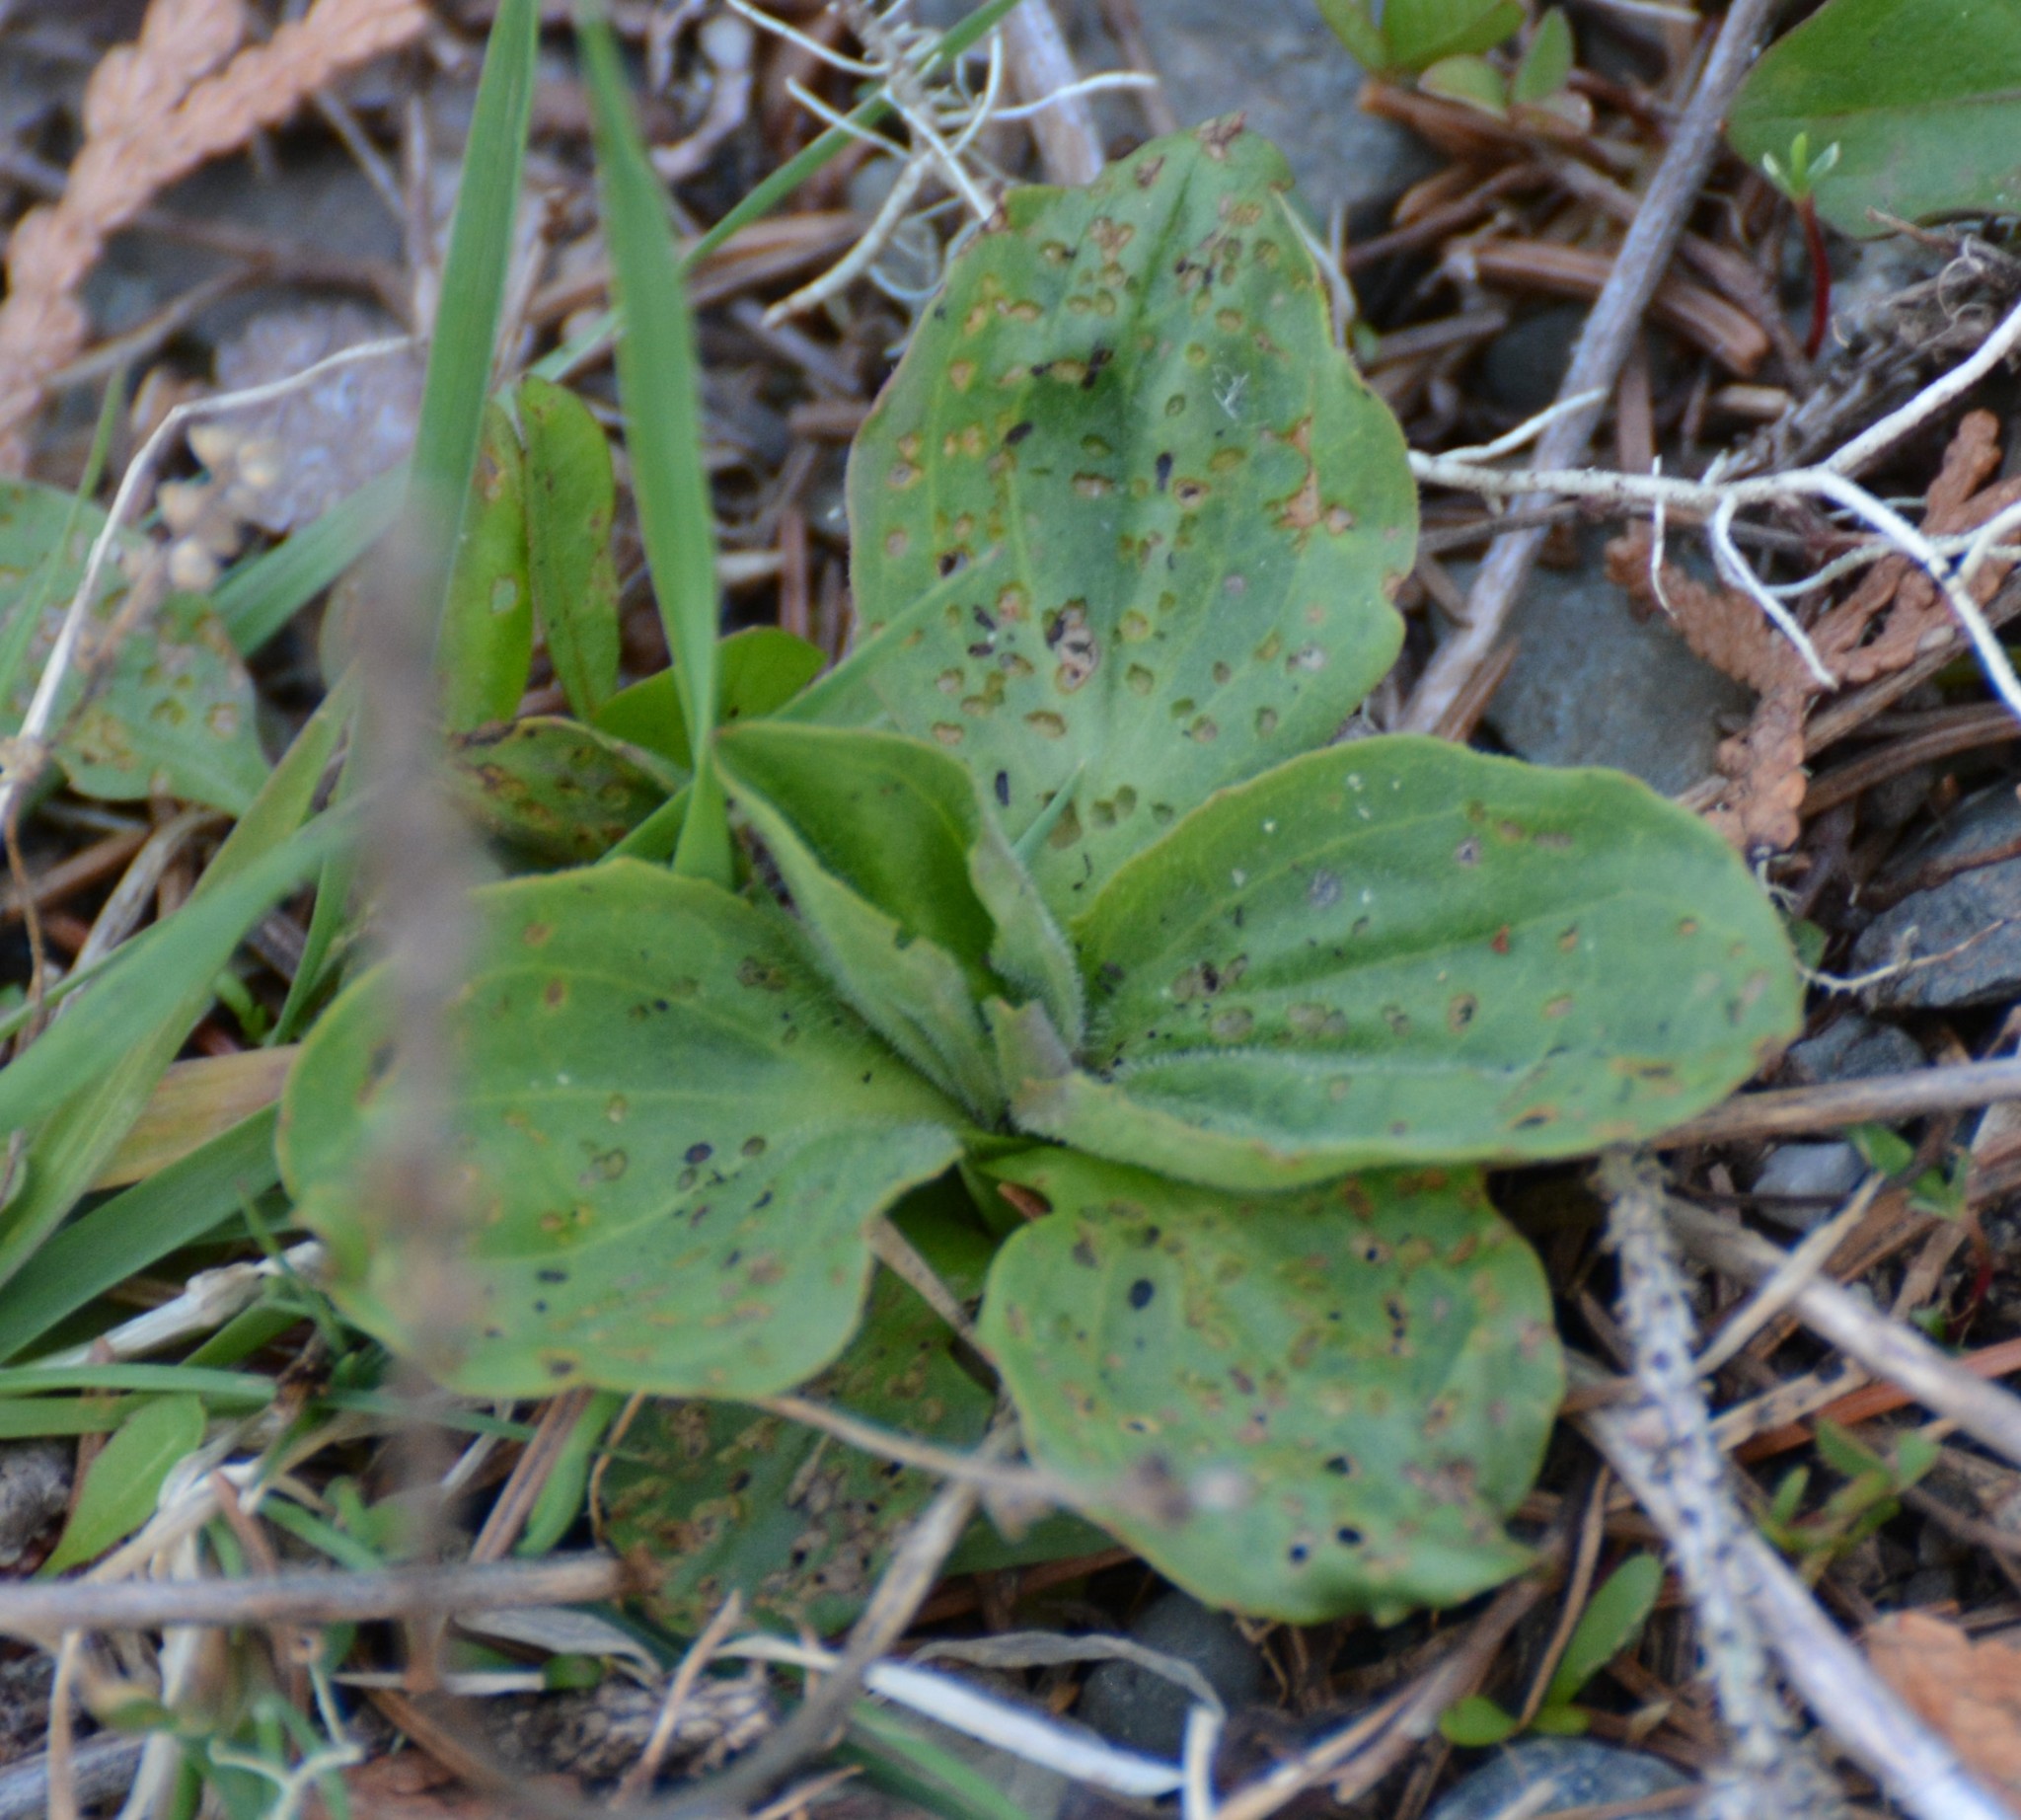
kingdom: Plantae
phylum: Tracheophyta
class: Magnoliopsida
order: Lamiales
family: Plantaginaceae
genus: Plantago
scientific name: Plantago major
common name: Common plantain
